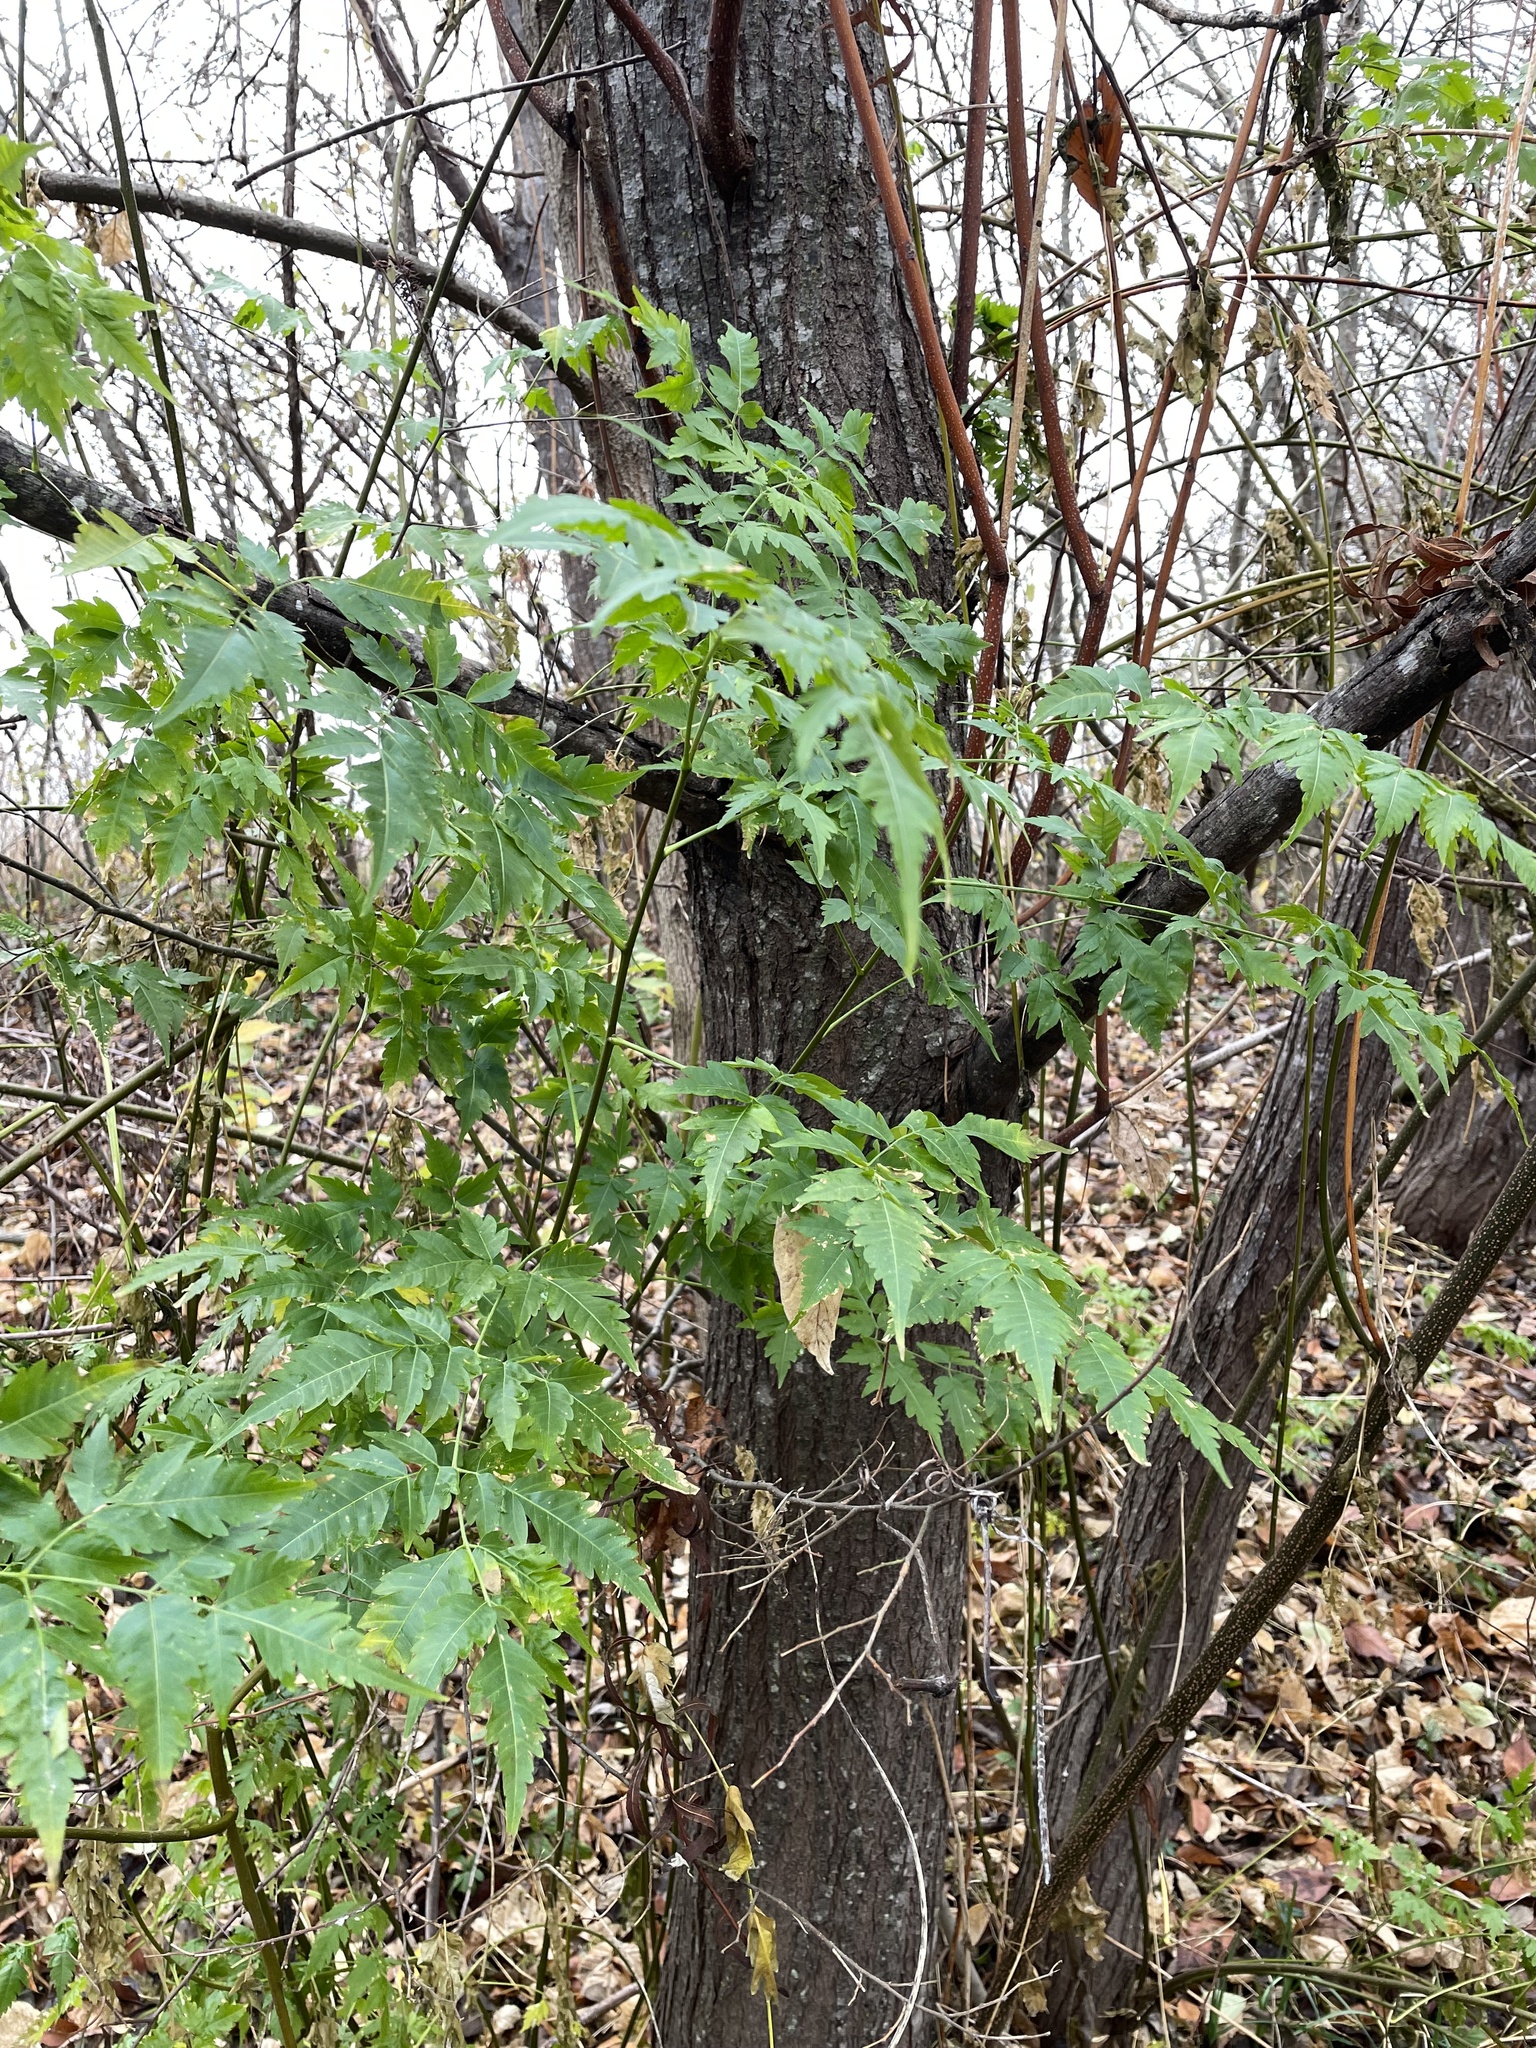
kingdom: Plantae
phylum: Tracheophyta
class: Magnoliopsida
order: Sapindales
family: Meliaceae
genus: Melia
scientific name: Melia azedarach
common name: Chinaberrytree
